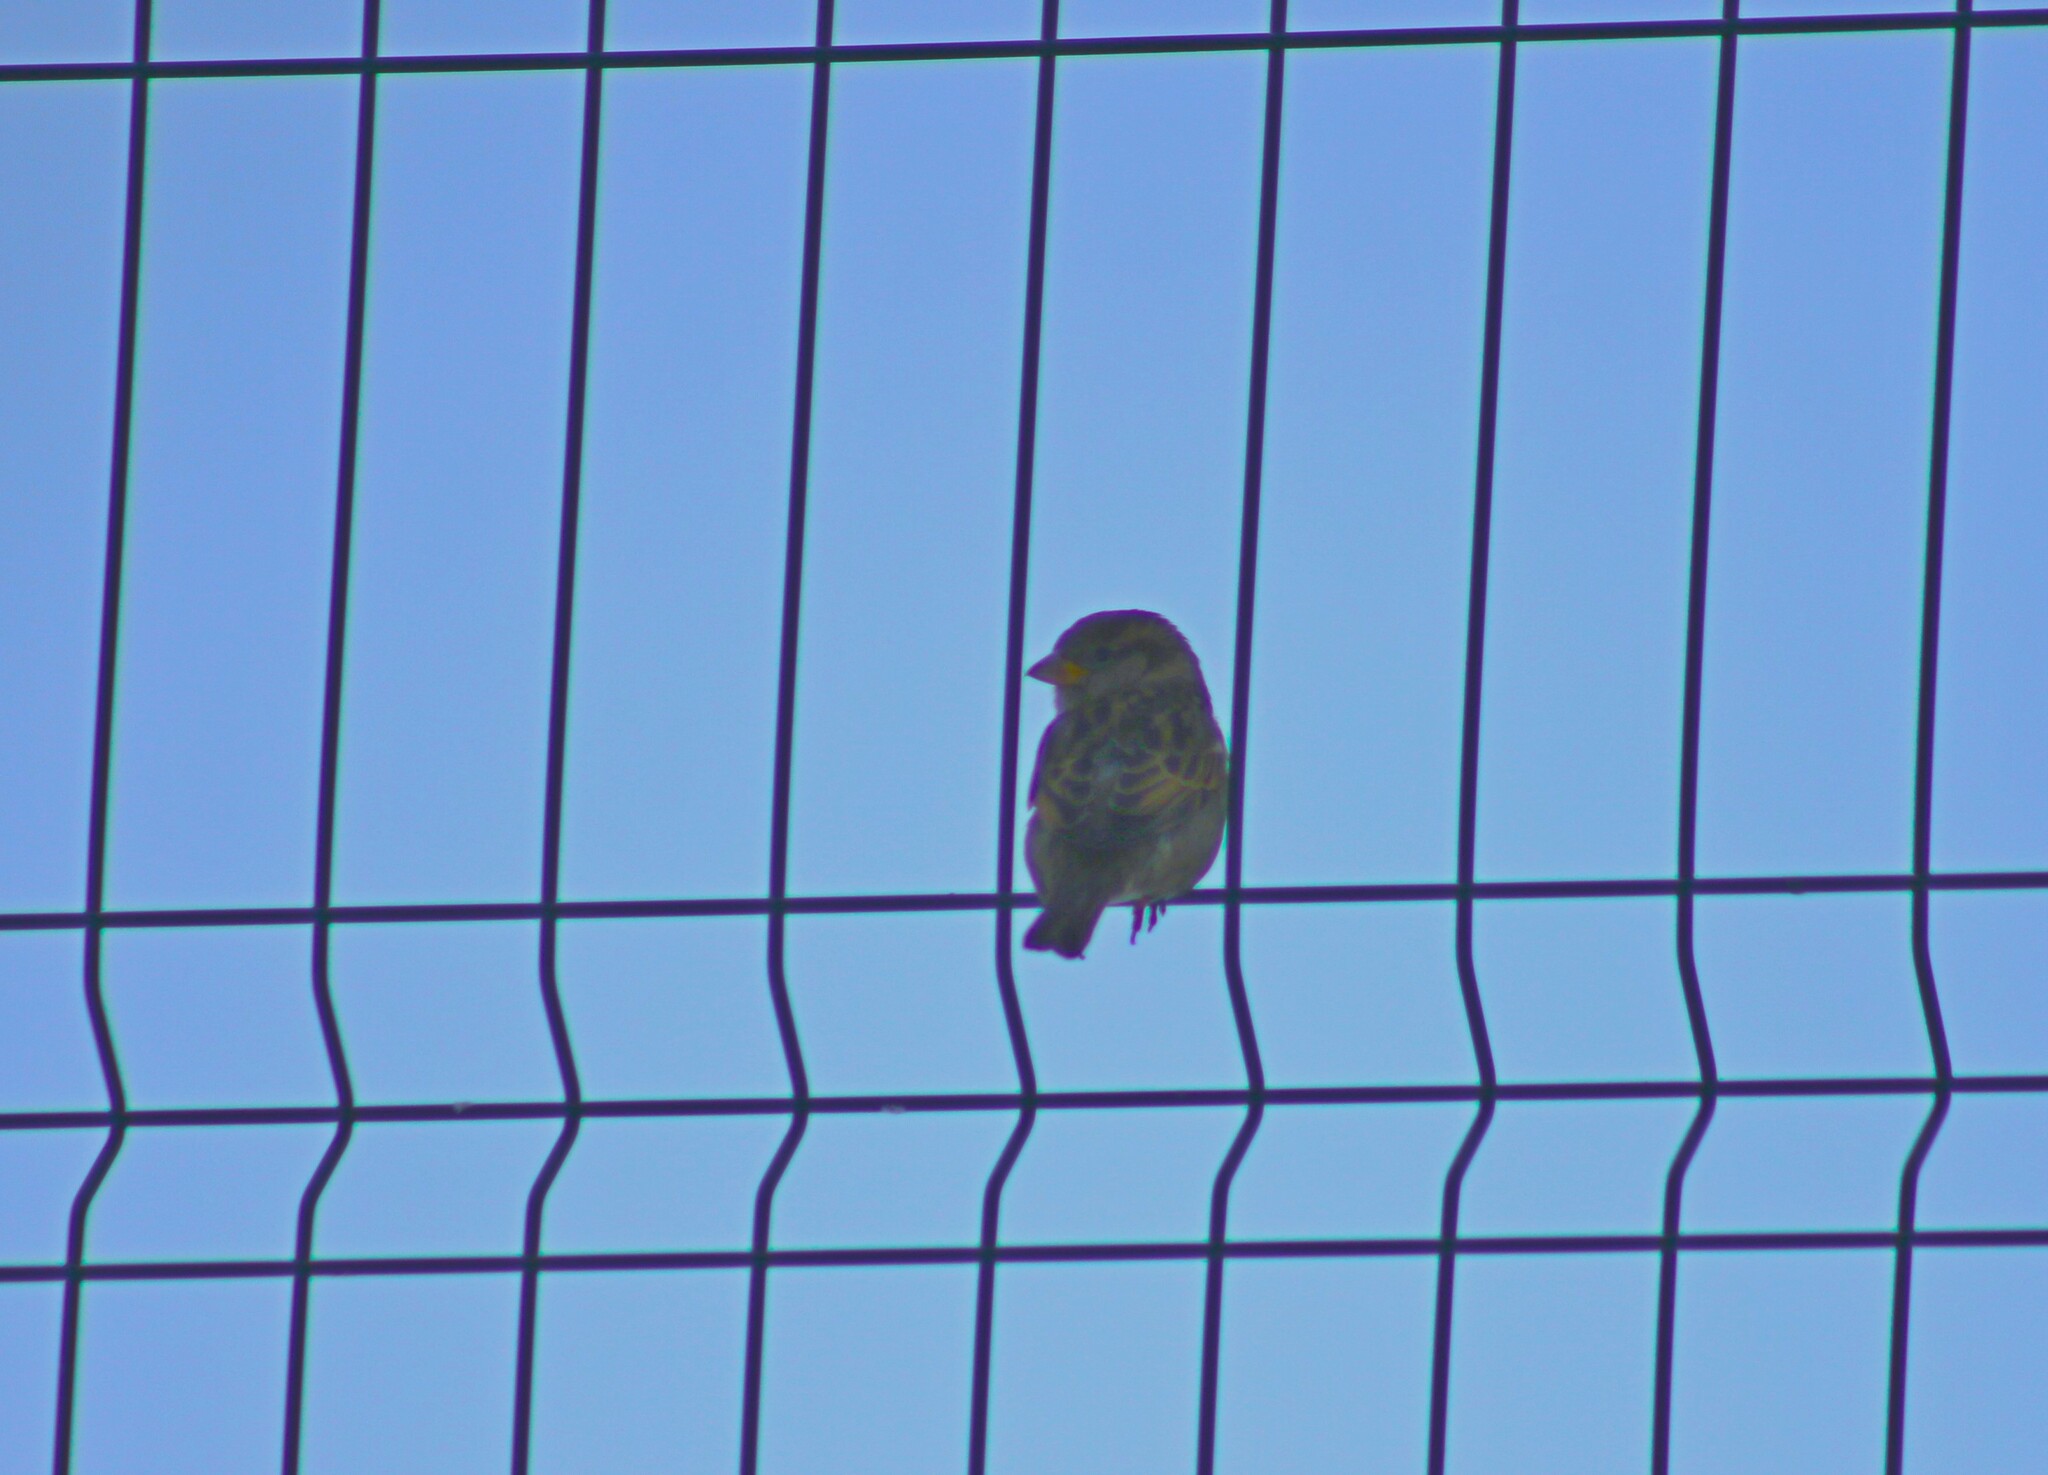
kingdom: Animalia
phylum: Chordata
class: Aves
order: Passeriformes
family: Passeridae
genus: Passer
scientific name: Passer domesticus
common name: House sparrow
